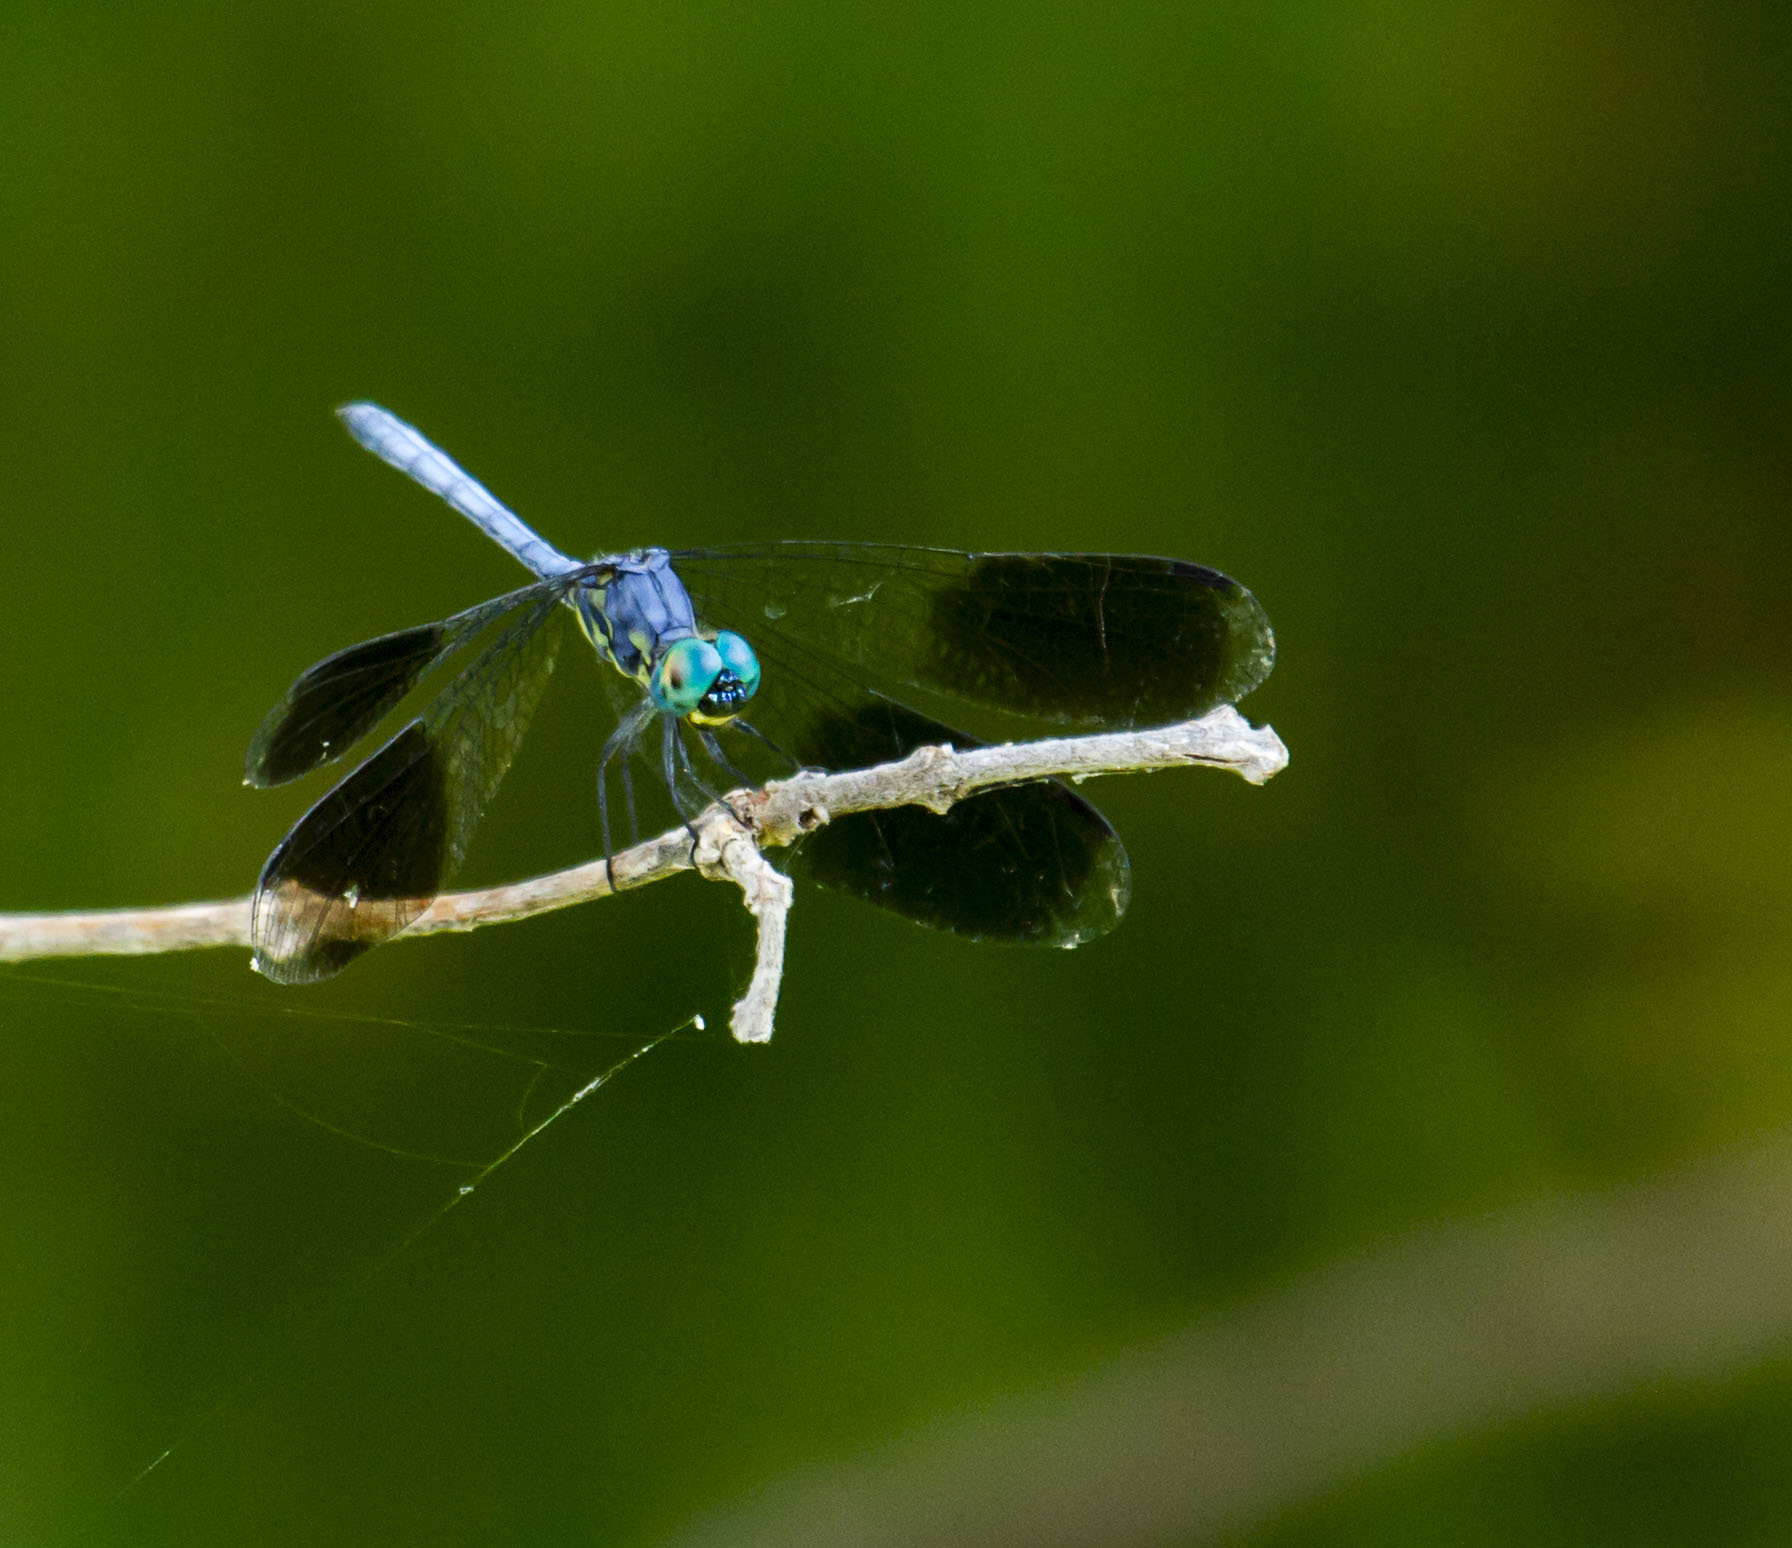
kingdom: Animalia
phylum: Arthropoda
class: Insecta
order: Odonata
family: Libellulidae
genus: Tetrathemis
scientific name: Tetrathemis polleni
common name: Black-splashed elf
